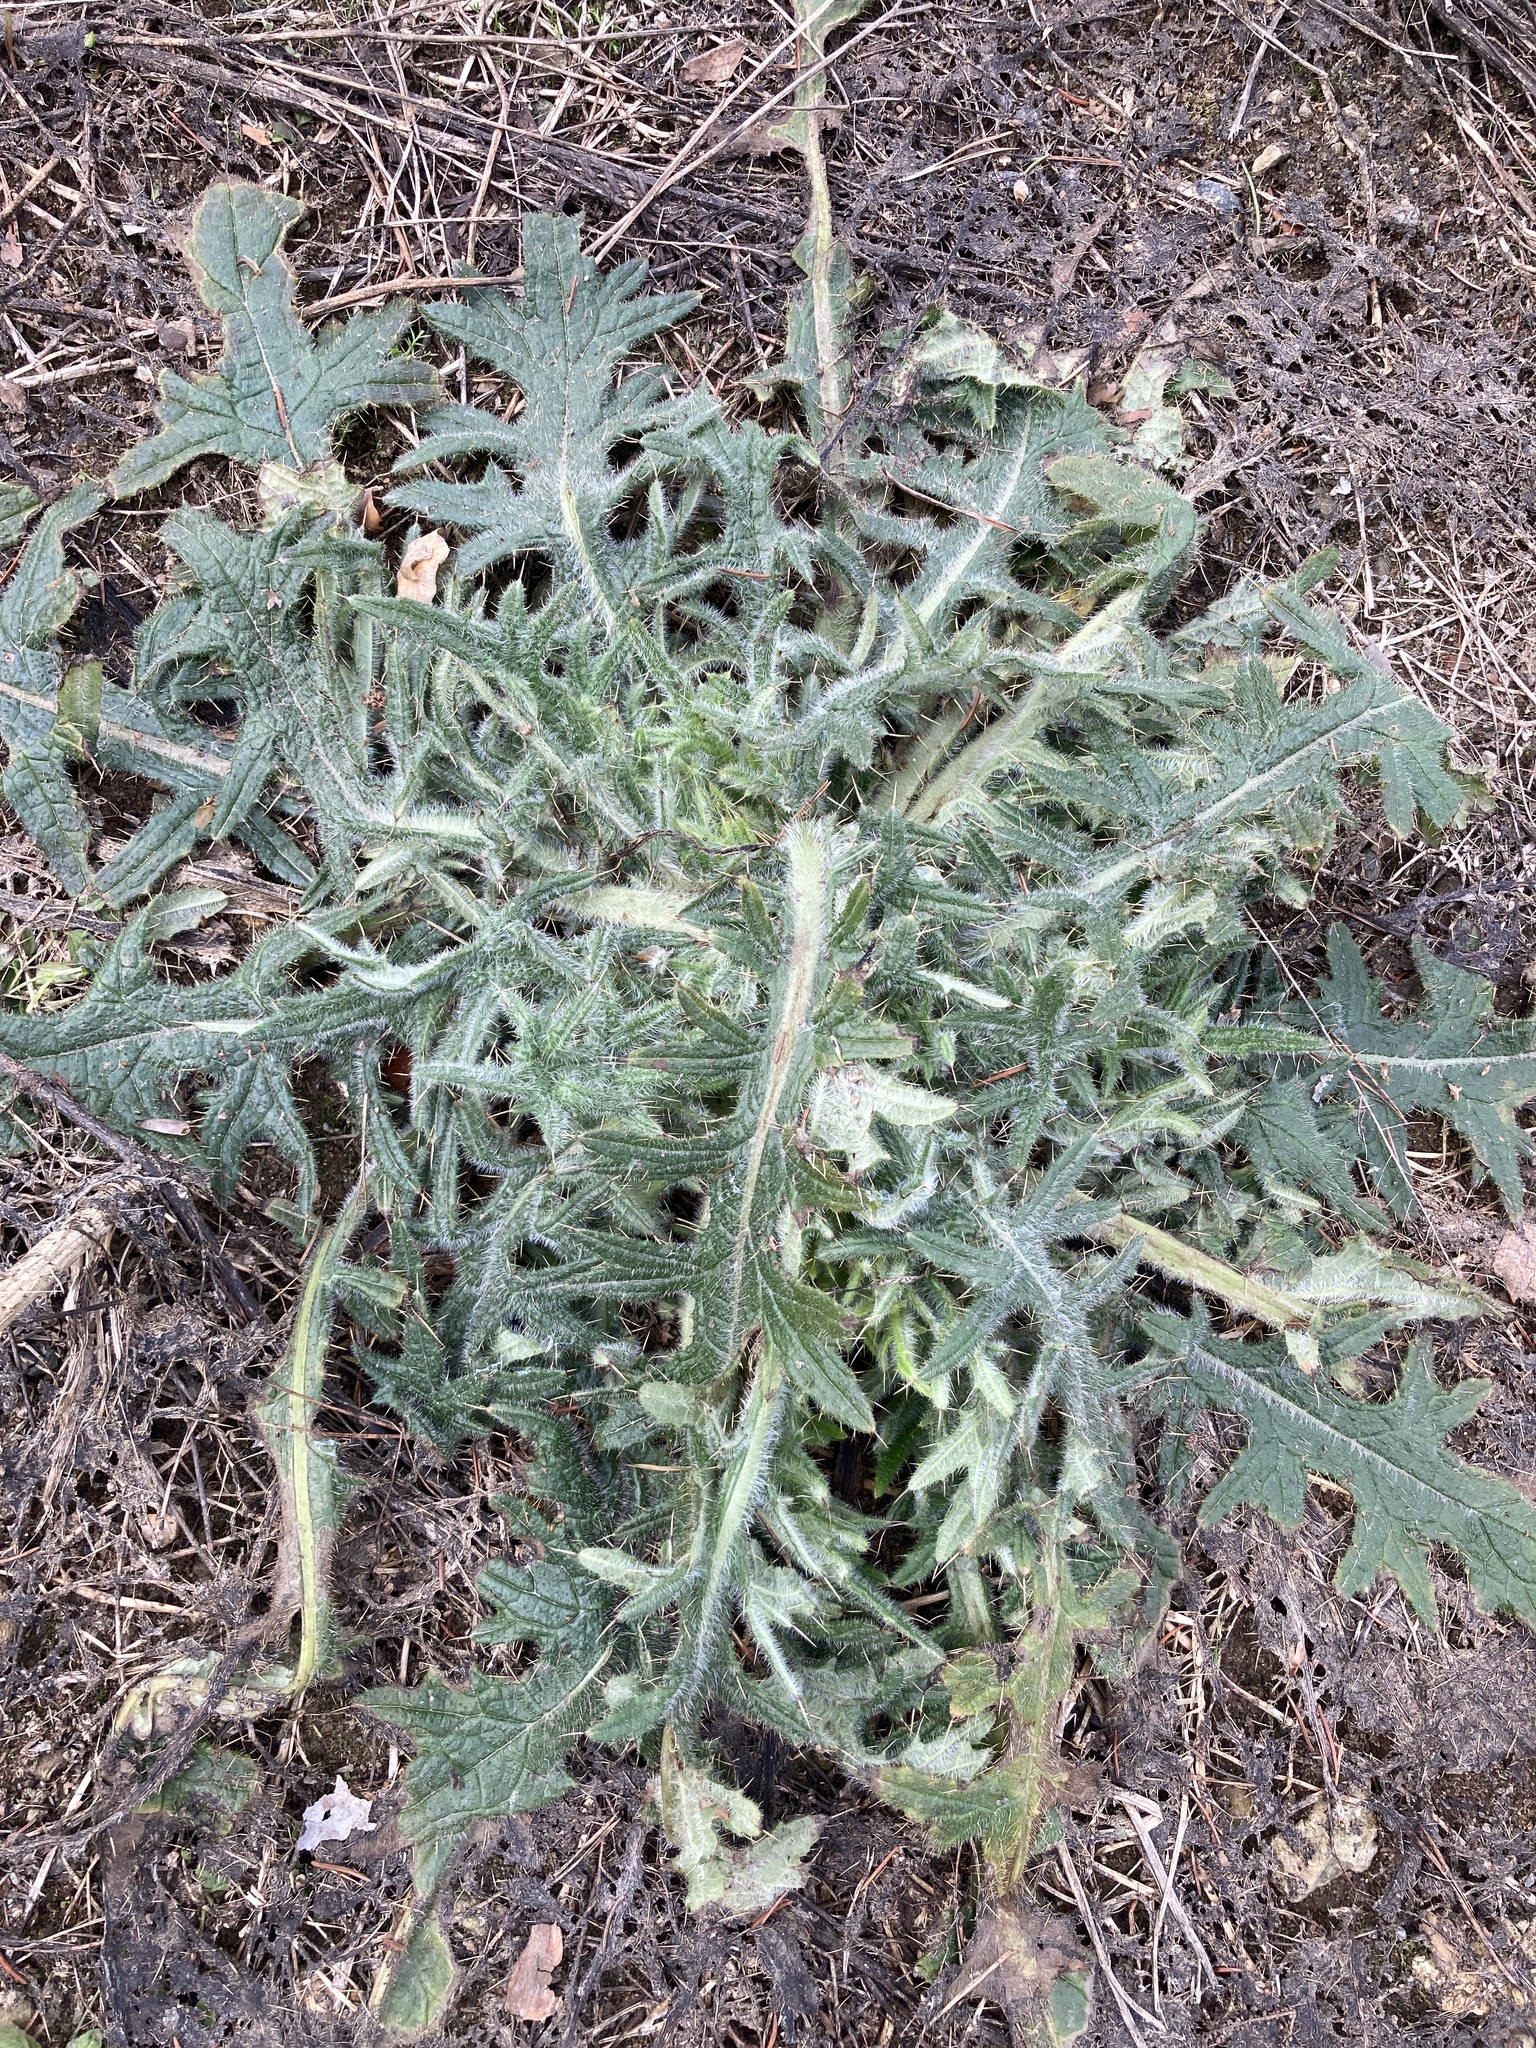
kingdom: Plantae
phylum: Tracheophyta
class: Magnoliopsida
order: Asterales
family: Asteraceae
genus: Cirsium
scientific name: Cirsium vulgare
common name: Bull thistle
